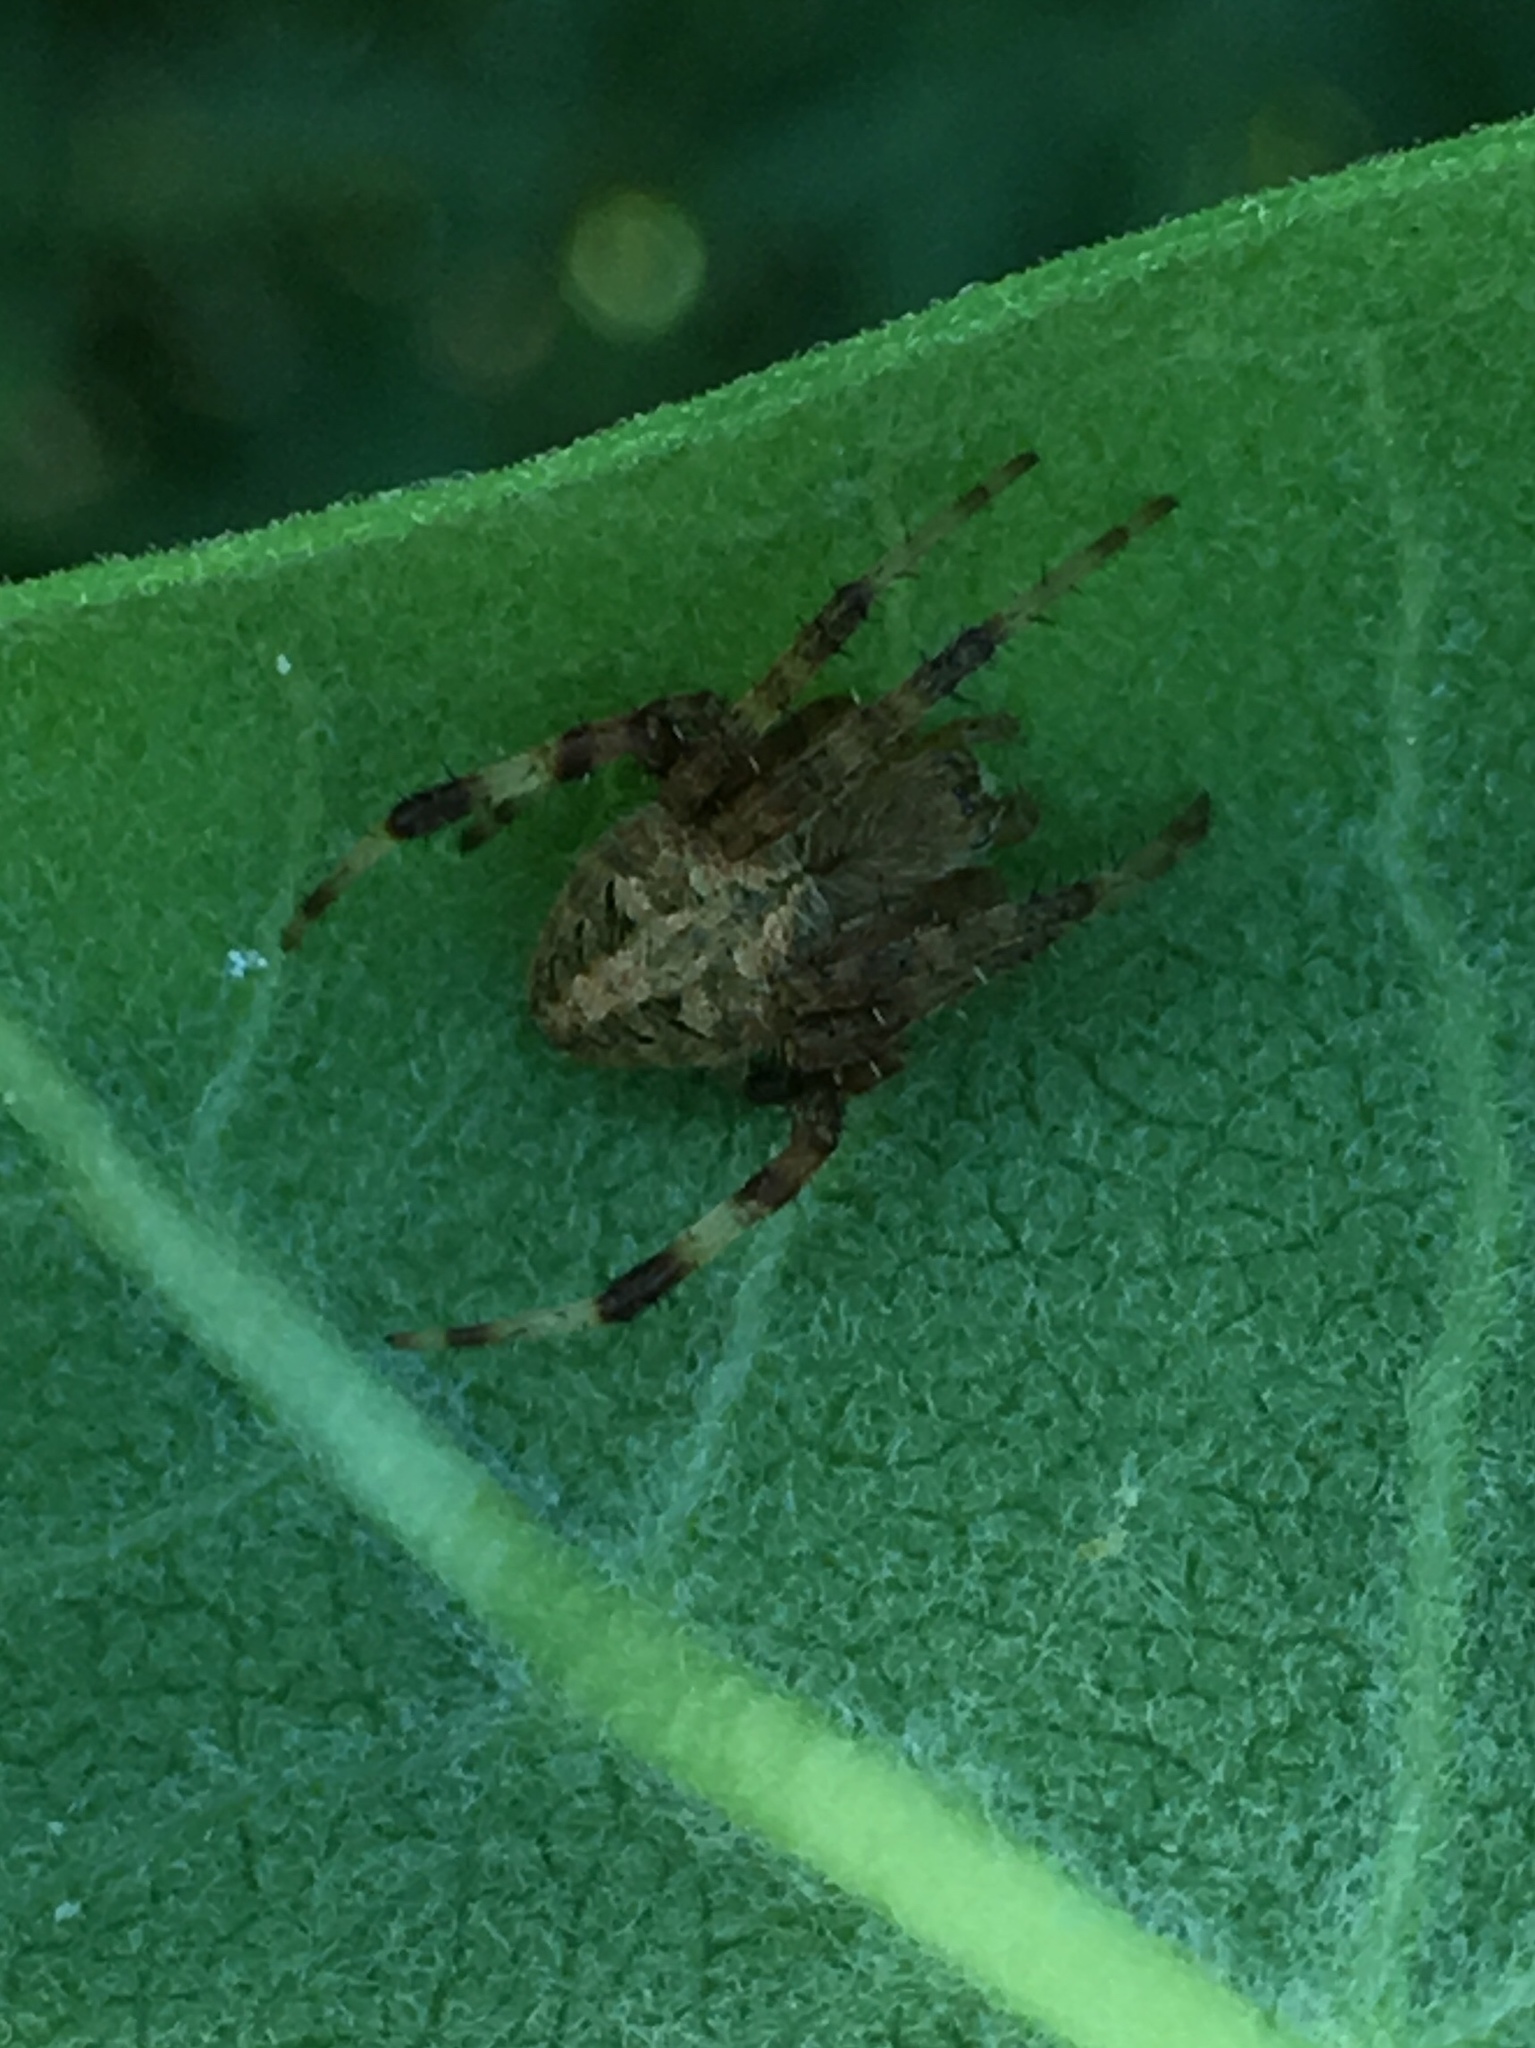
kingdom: Animalia
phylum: Arthropoda
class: Arachnida
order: Araneae
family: Araneidae
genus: Neoscona
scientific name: Neoscona crucifera
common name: Spotted orbweaver
